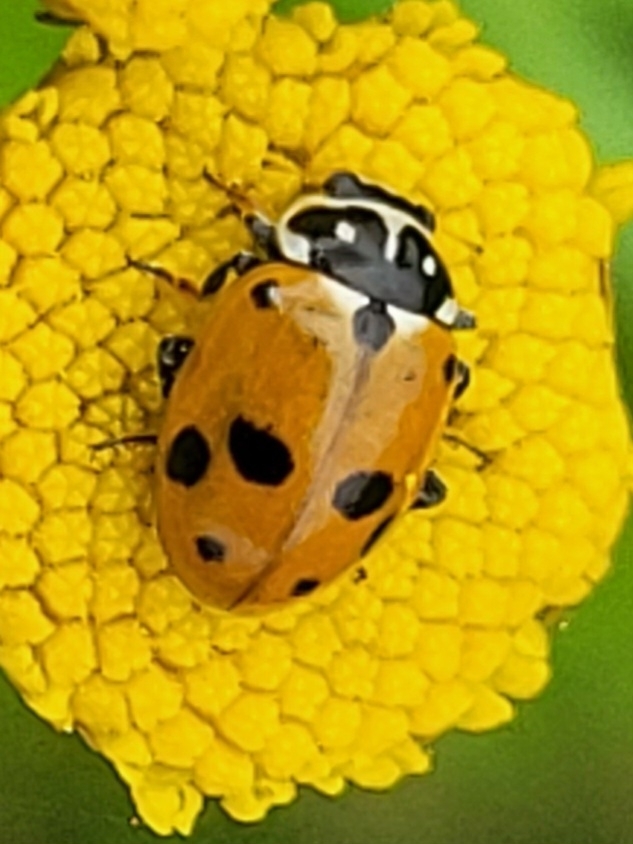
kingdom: Animalia
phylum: Arthropoda
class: Insecta
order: Coleoptera
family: Coccinellidae
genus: Hippodamia
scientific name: Hippodamia variegata
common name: Ladybird beetle
